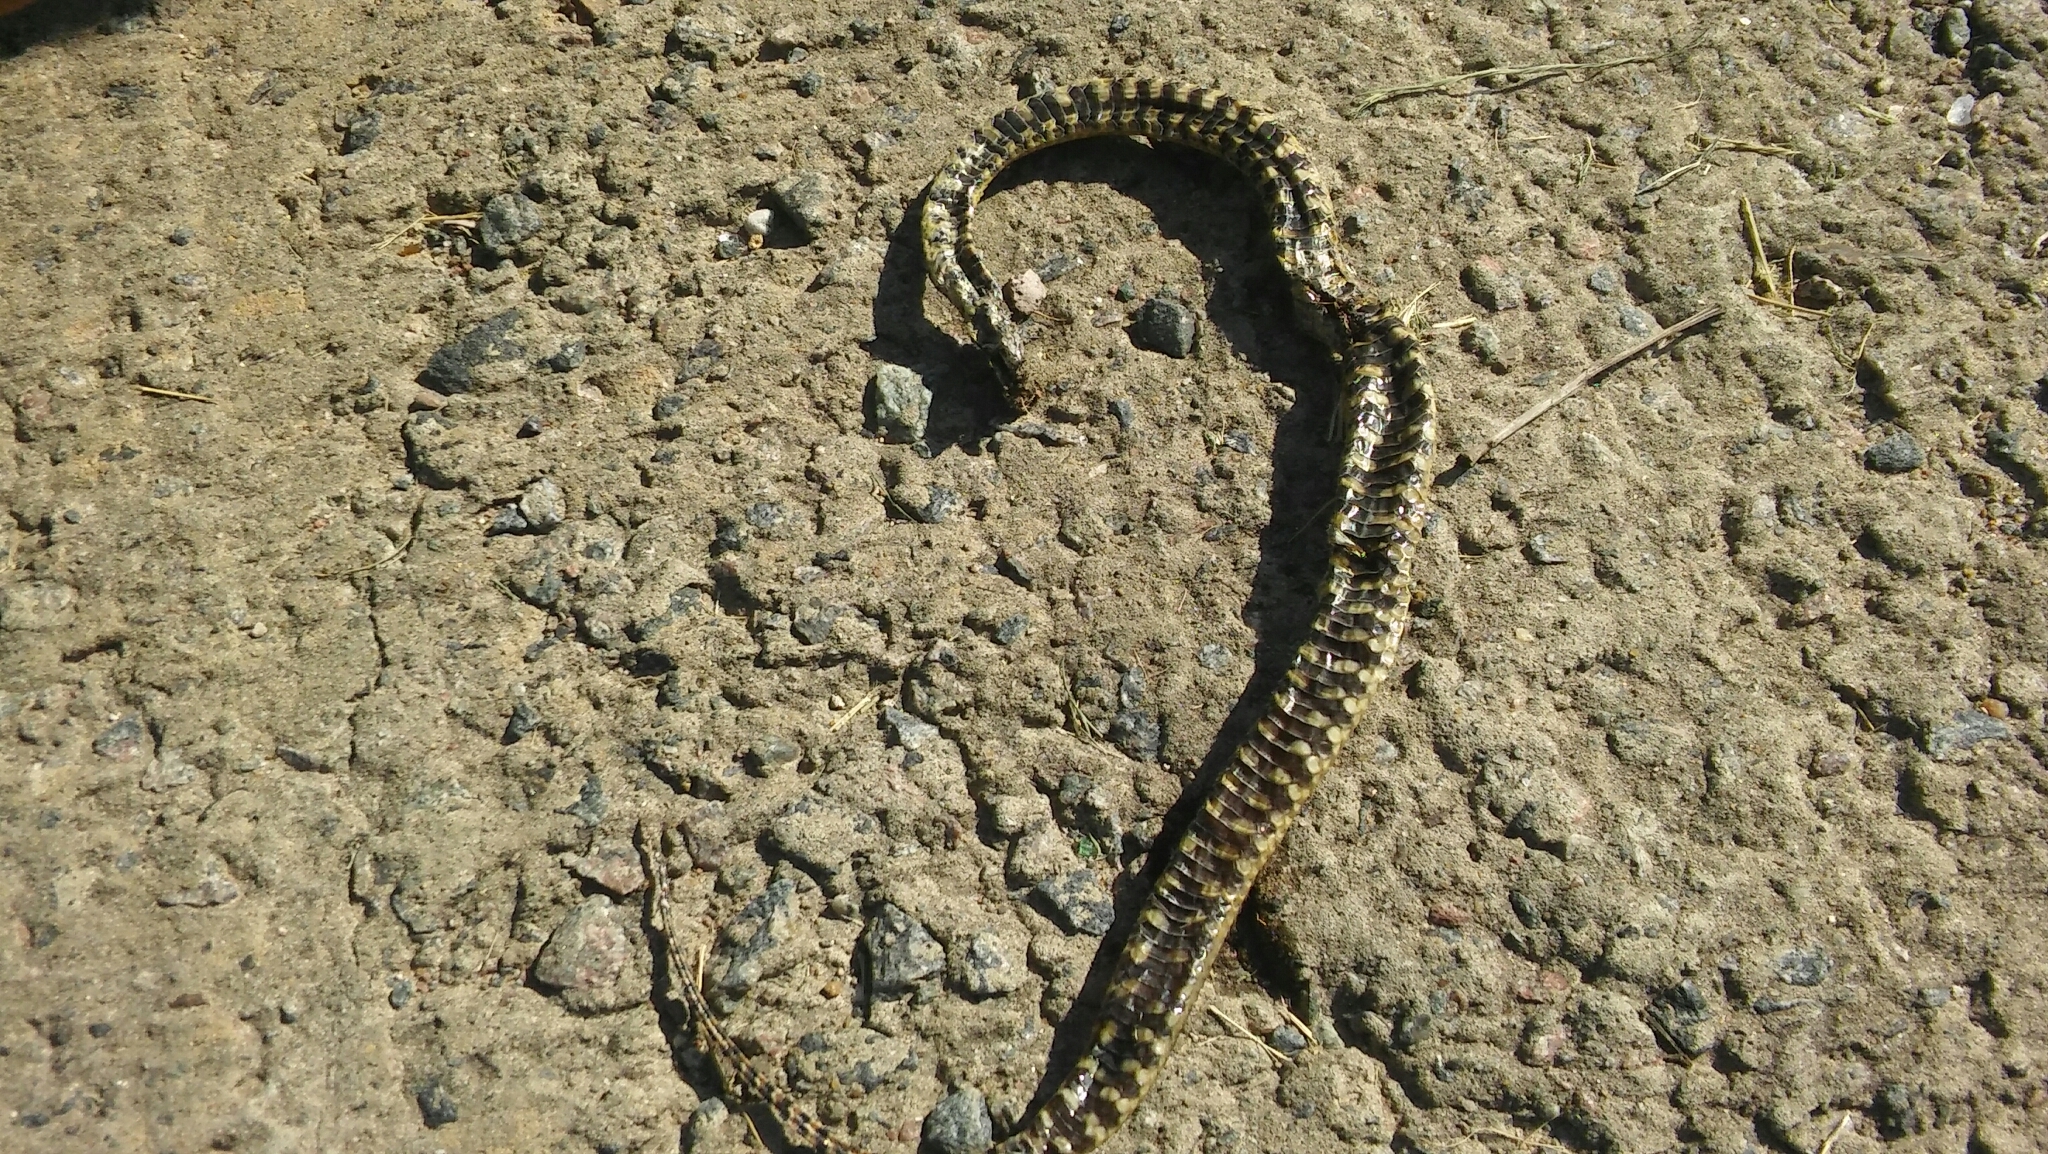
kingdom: Animalia
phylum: Chordata
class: Squamata
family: Colubridae
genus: Helicops
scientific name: Helicops infrataeniatus
